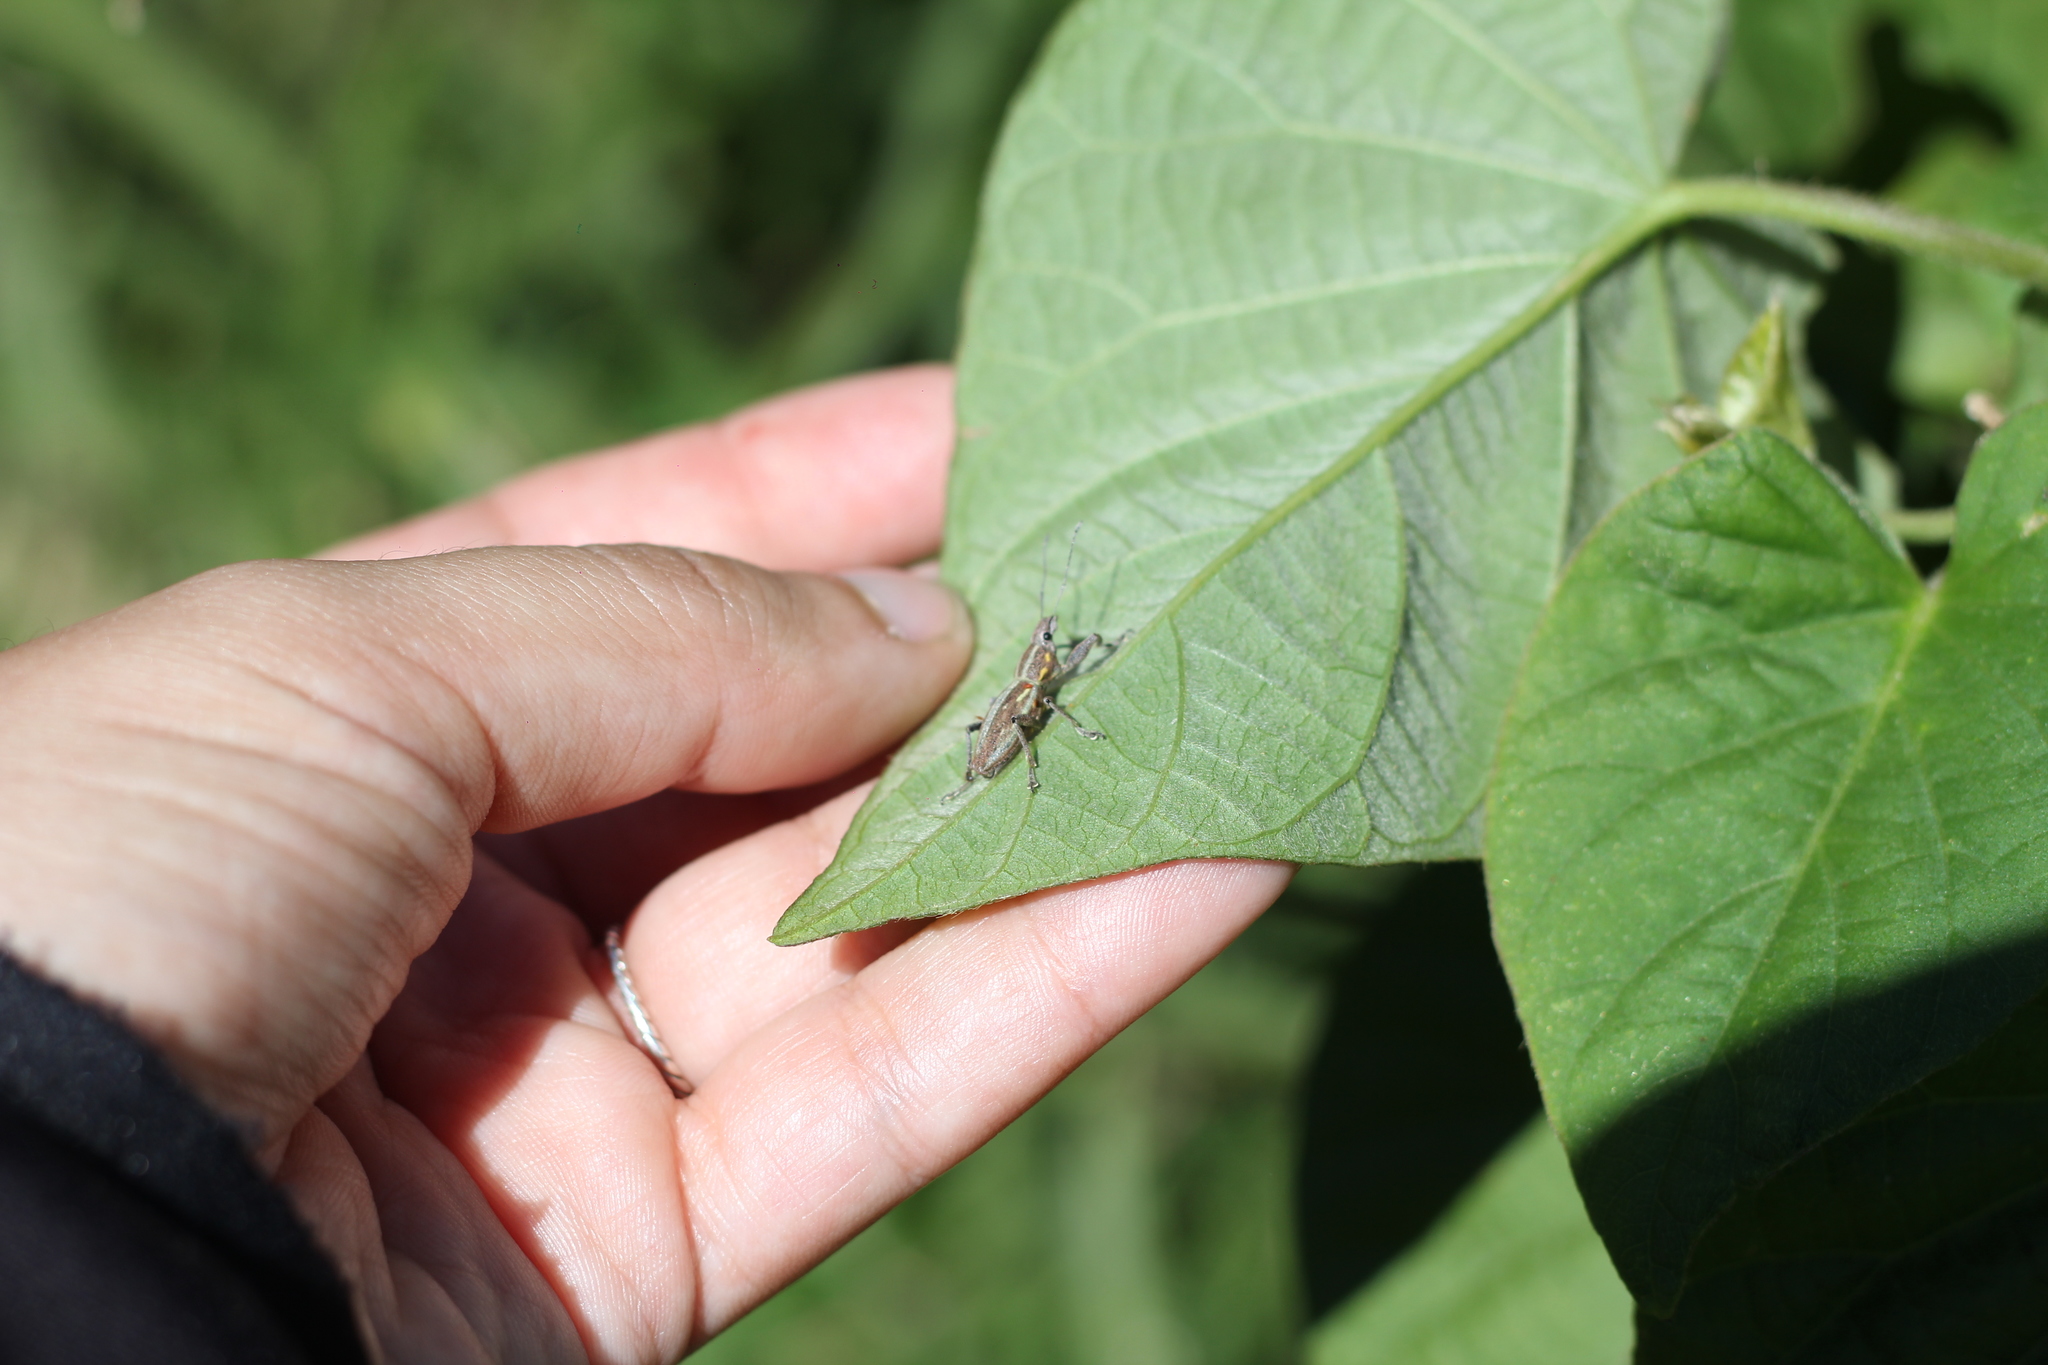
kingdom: Animalia
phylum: Arthropoda
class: Insecta
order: Coleoptera
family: Curculionidae
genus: Naupactus
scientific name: Naupactus xanthographus
